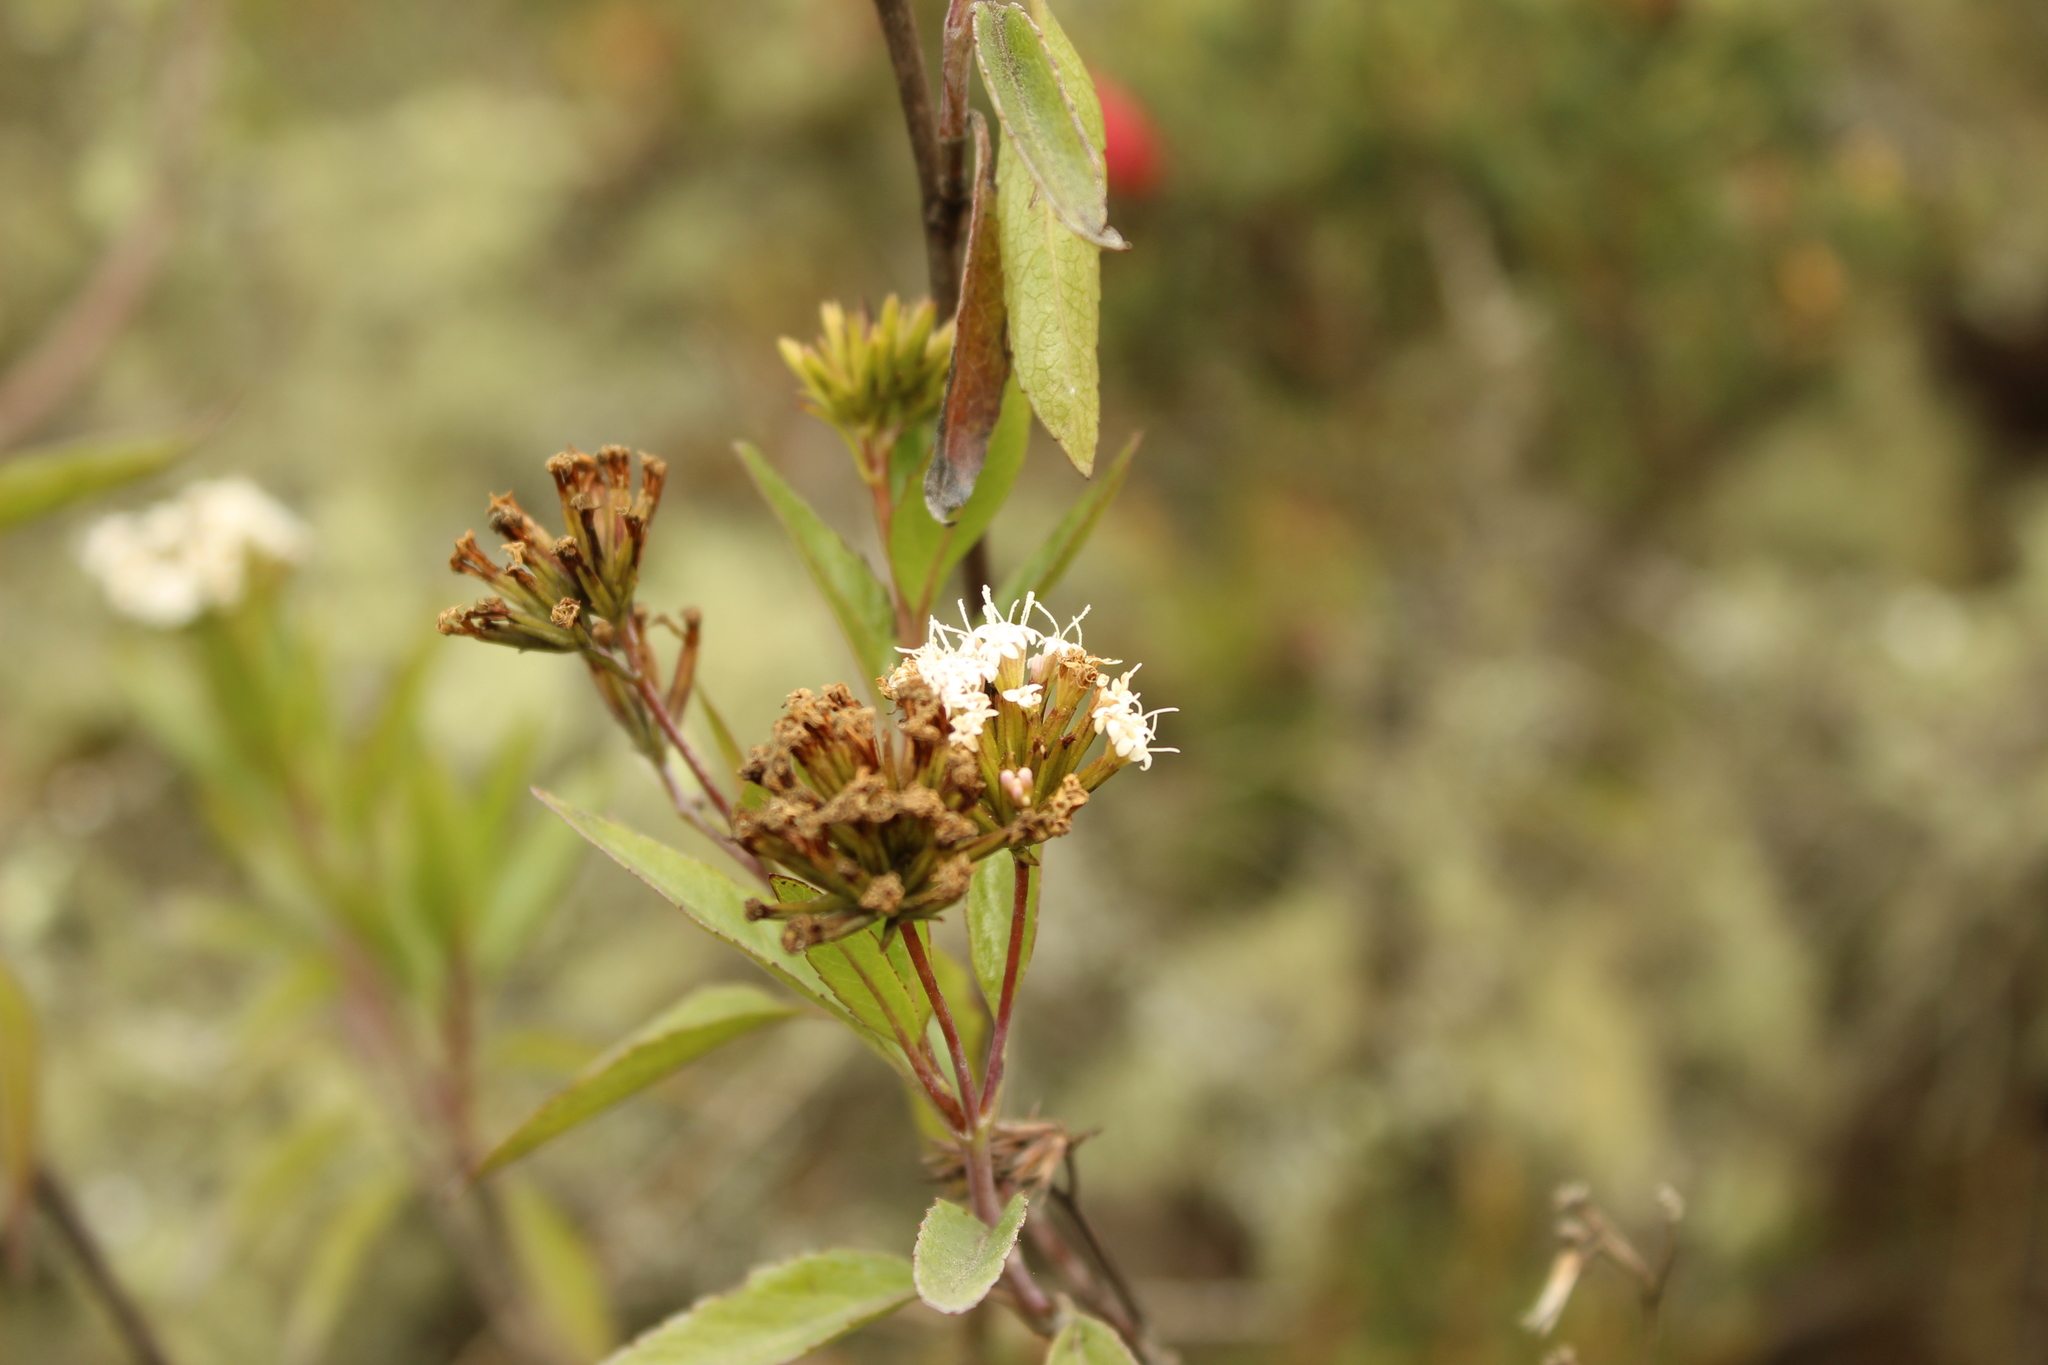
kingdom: Plantae
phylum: Tracheophyta
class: Magnoliopsida
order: Asterales
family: Asteraceae
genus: Stevia
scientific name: Stevia lucida
